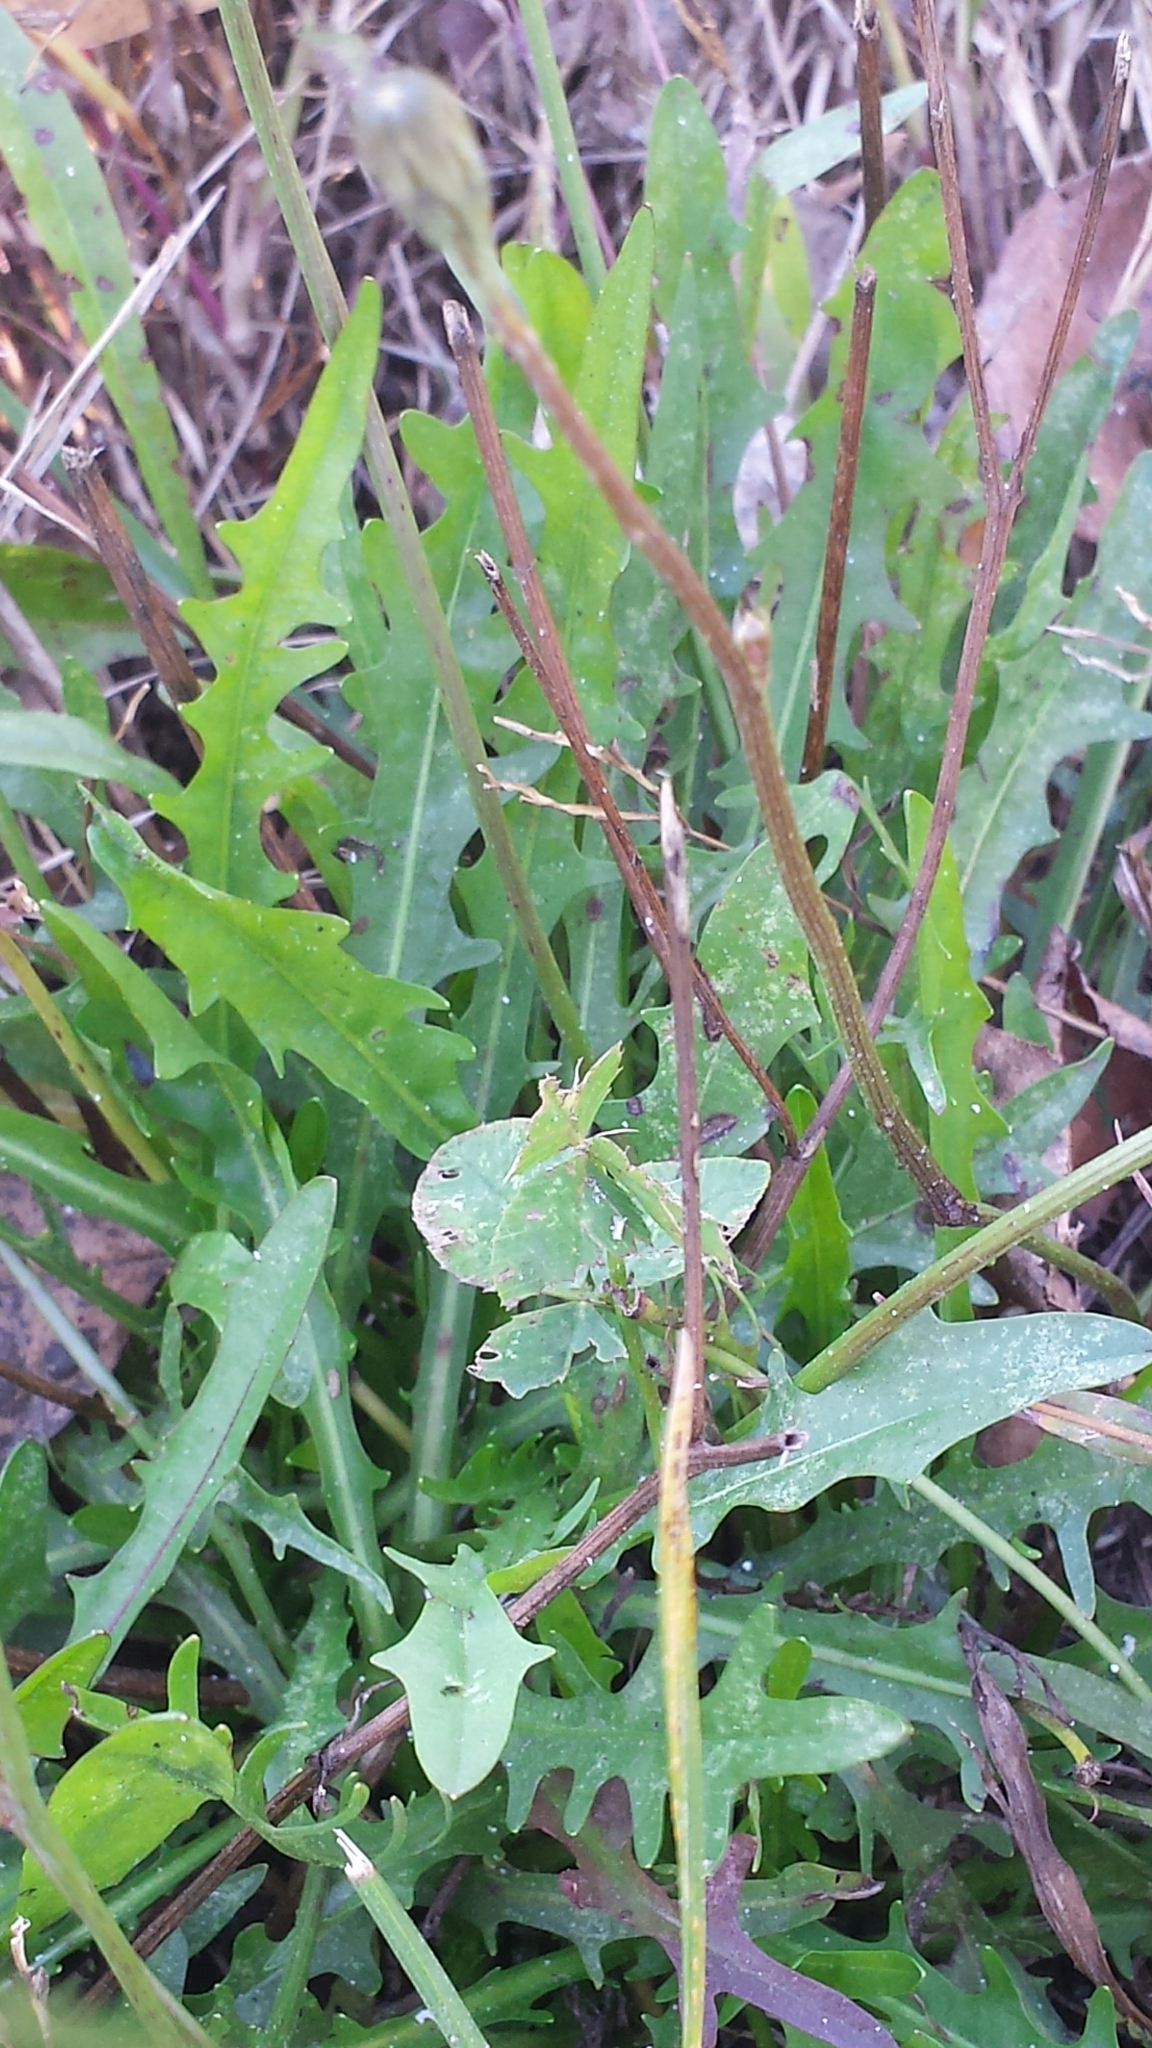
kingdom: Plantae
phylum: Tracheophyta
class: Magnoliopsida
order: Asterales
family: Asteraceae
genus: Scorzoneroides
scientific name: Scorzoneroides autumnalis
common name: Autumn hawkbit
